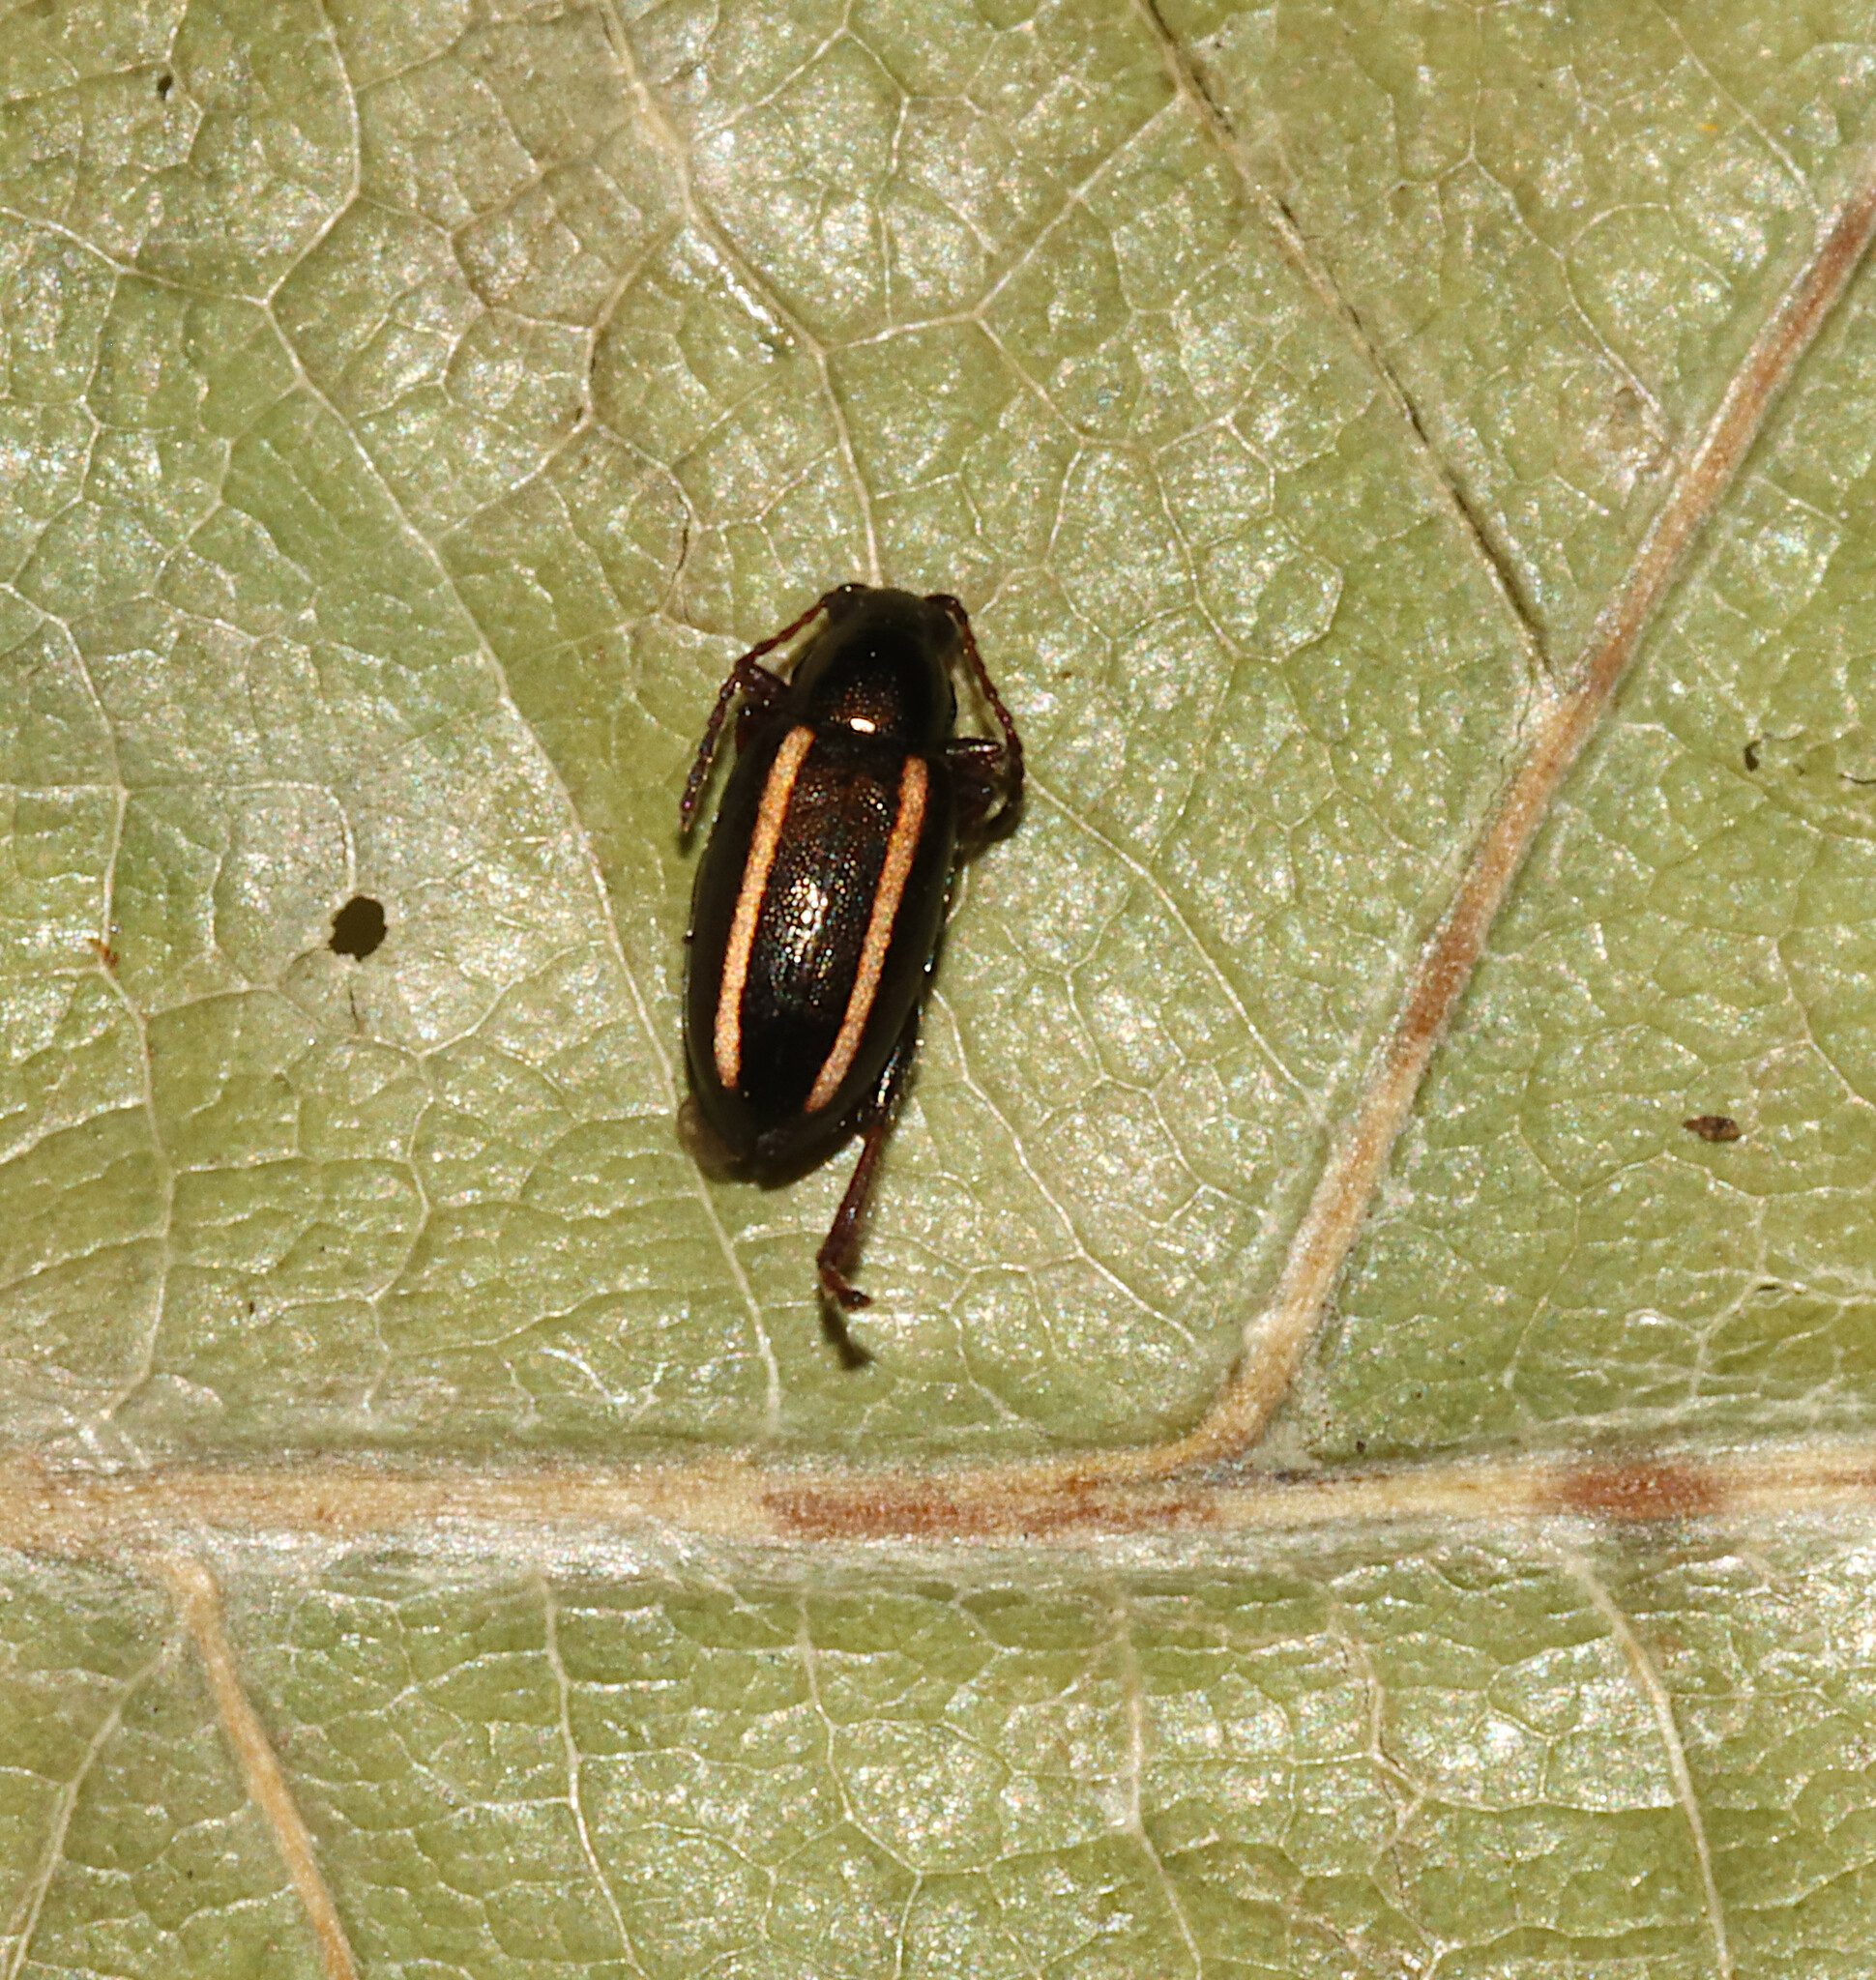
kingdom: Animalia
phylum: Arthropoda
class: Insecta
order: Coleoptera
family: Chrysomelidae
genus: Systena
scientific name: Systena elongata
